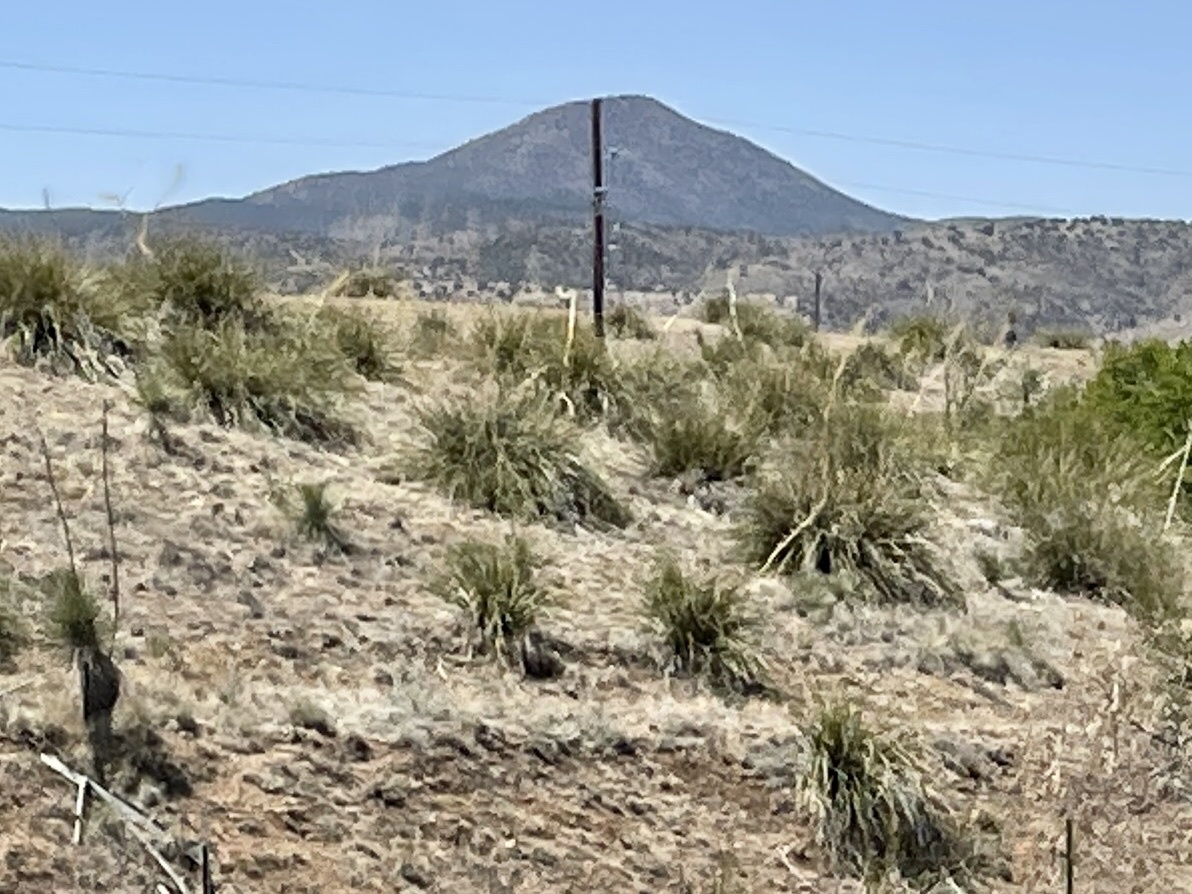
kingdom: Plantae
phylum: Tracheophyta
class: Liliopsida
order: Asparagales
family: Asparagaceae
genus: Nolina
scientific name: Nolina microcarpa
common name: Bear-grass
